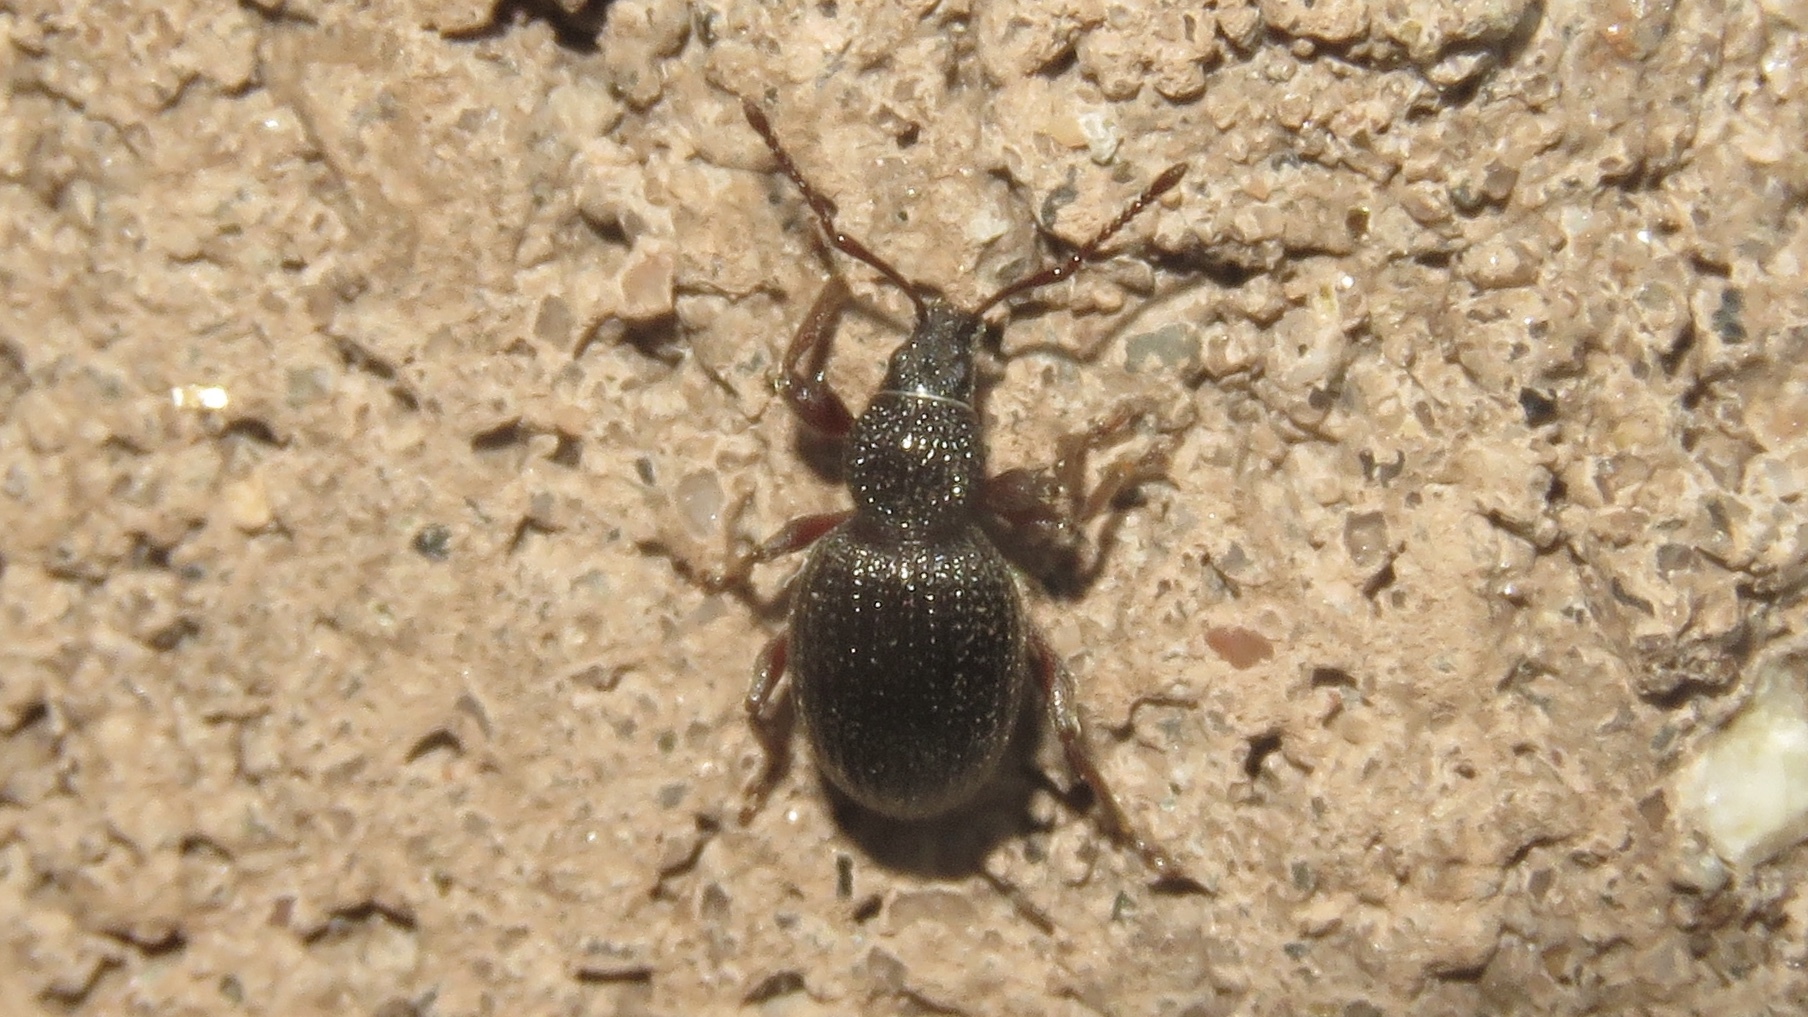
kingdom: Animalia
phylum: Arthropoda
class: Insecta
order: Coleoptera
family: Curculionidae
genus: Otiorhynchus
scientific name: Otiorhynchus ovatus
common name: Strawberry root weevil
